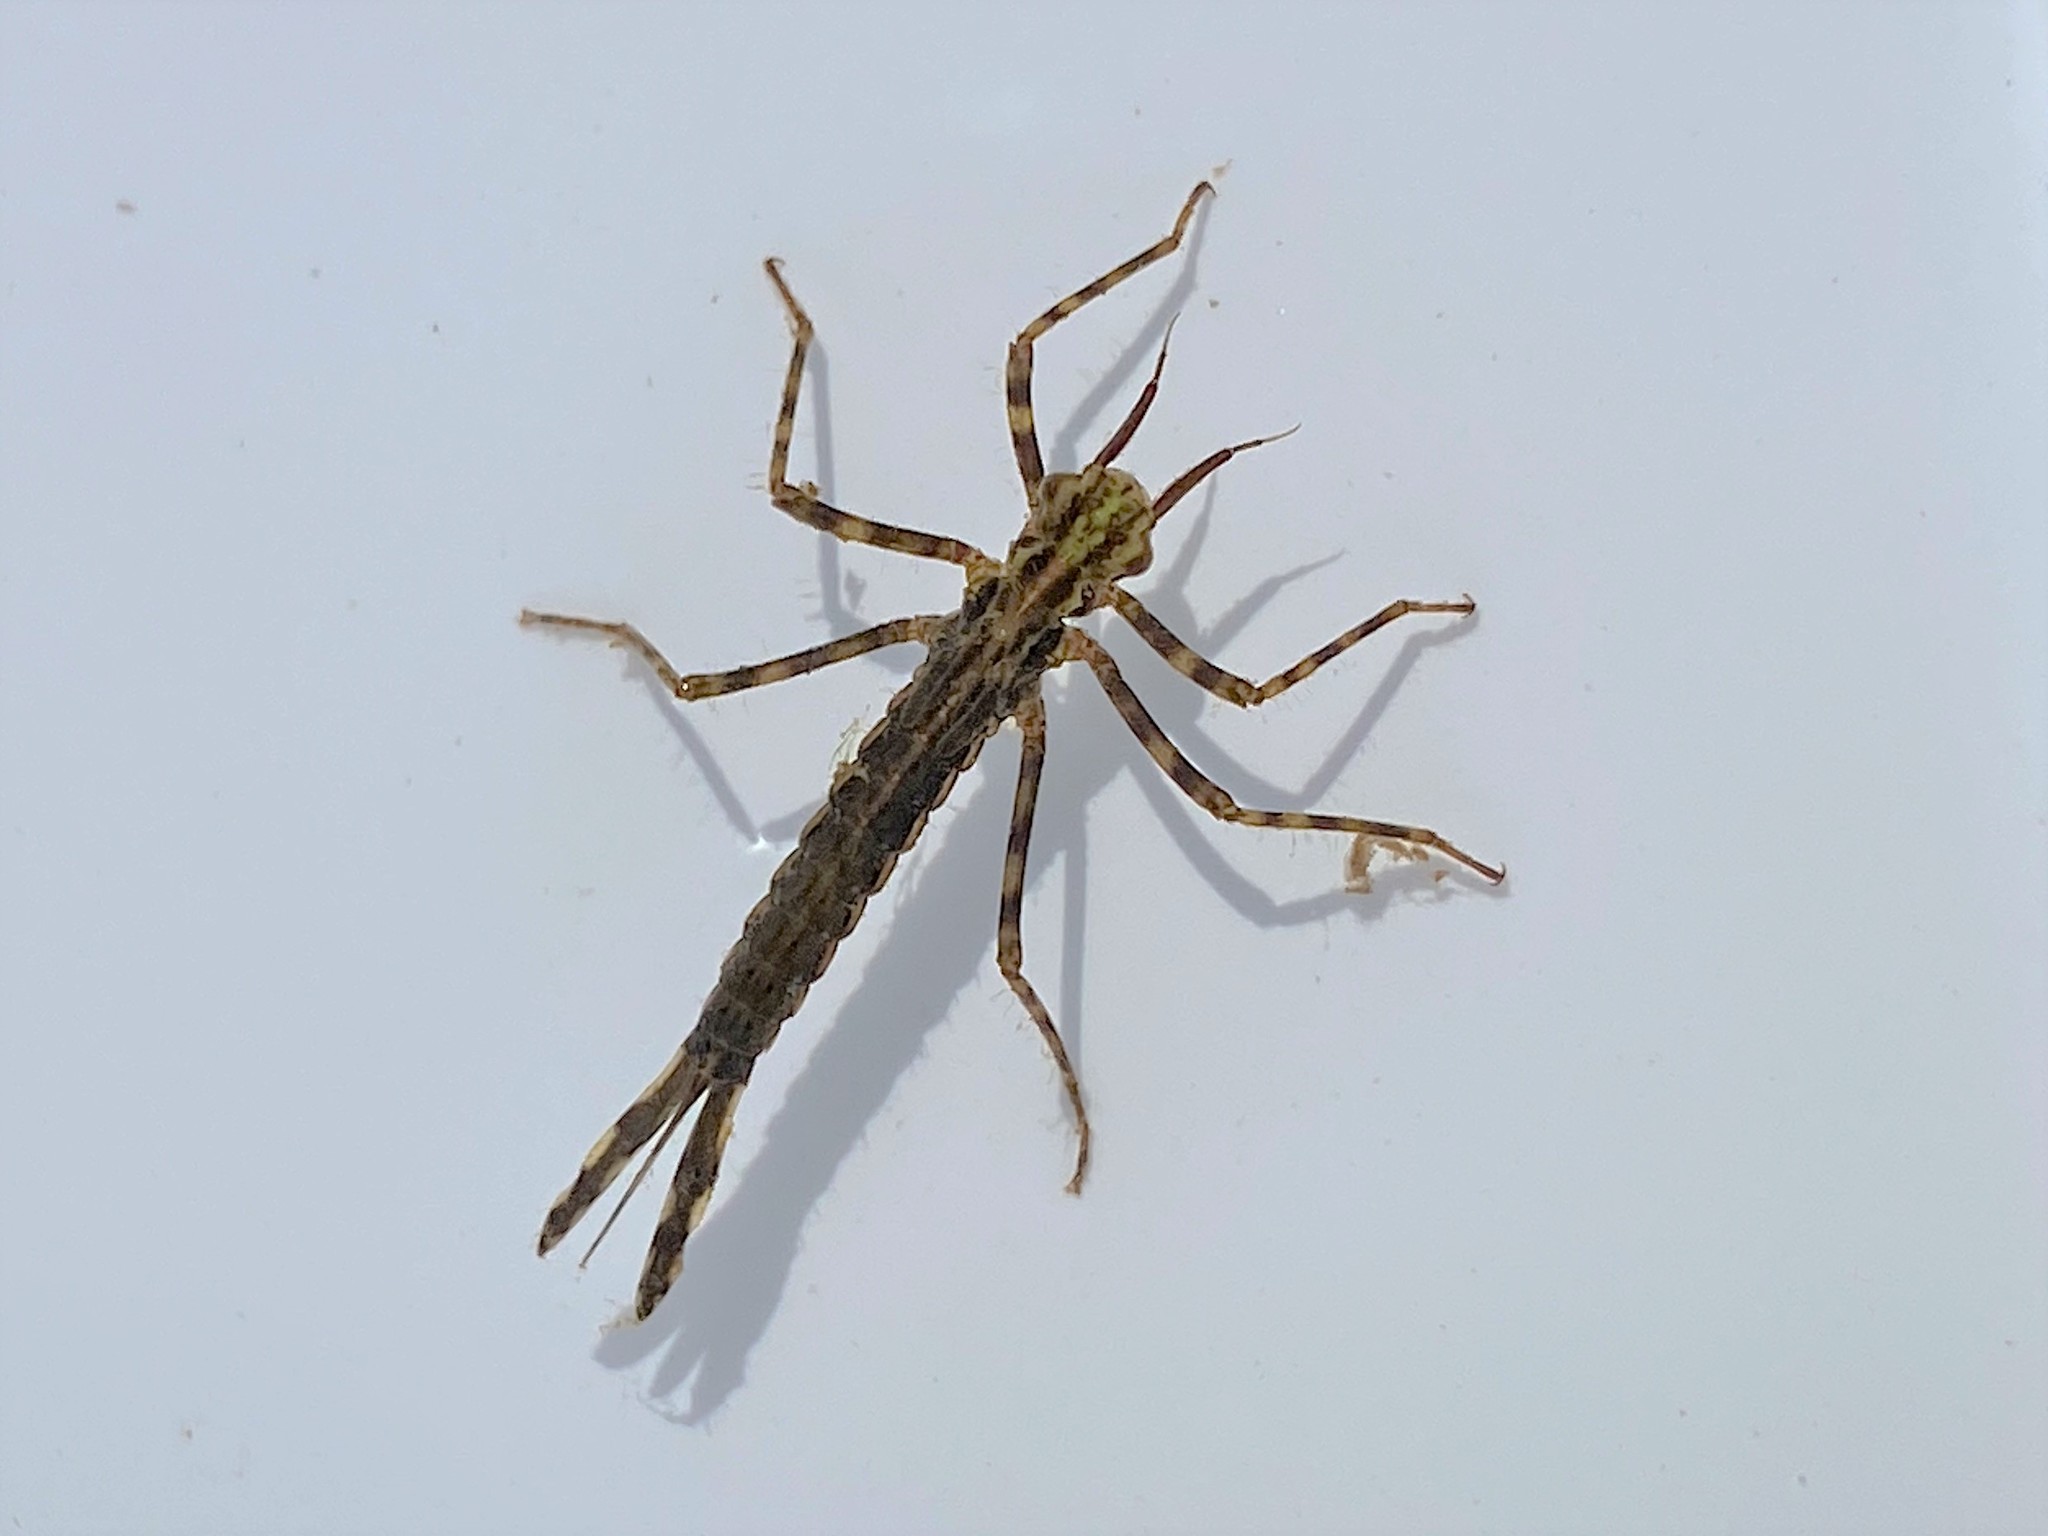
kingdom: Animalia
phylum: Arthropoda
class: Insecta
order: Odonata
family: Calopterygidae
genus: Hetaerina
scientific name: Hetaerina americana
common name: American rubyspot
